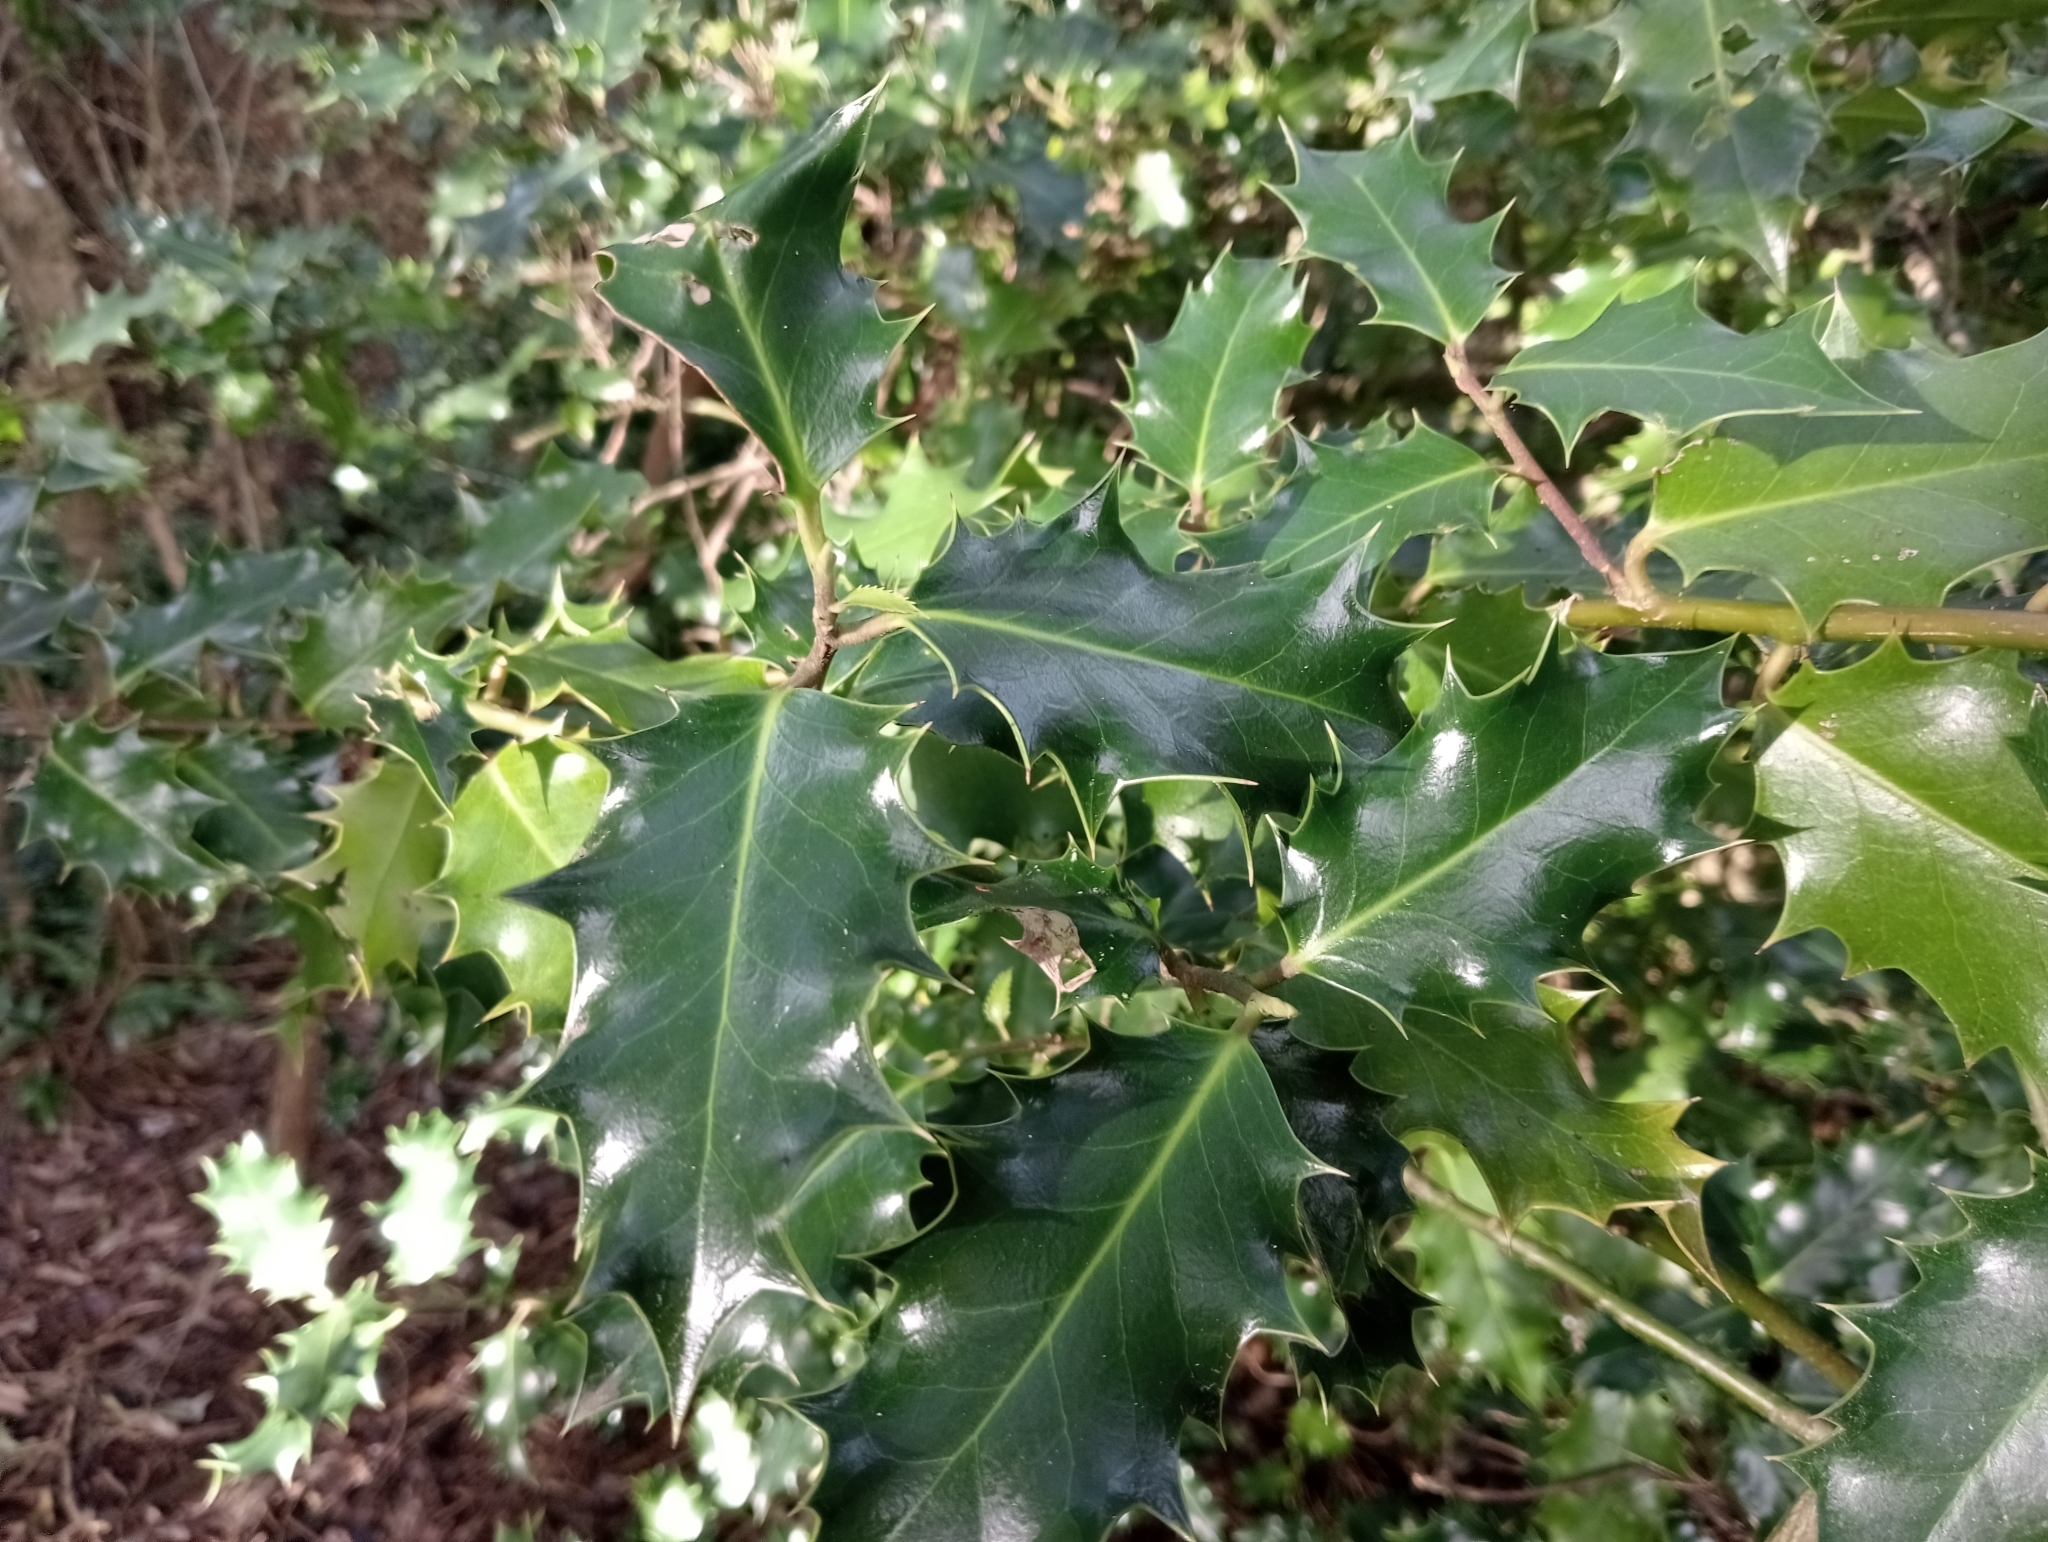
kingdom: Plantae
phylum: Tracheophyta
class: Magnoliopsida
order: Aquifoliales
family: Aquifoliaceae
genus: Ilex
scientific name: Ilex aquifolium
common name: English holly
